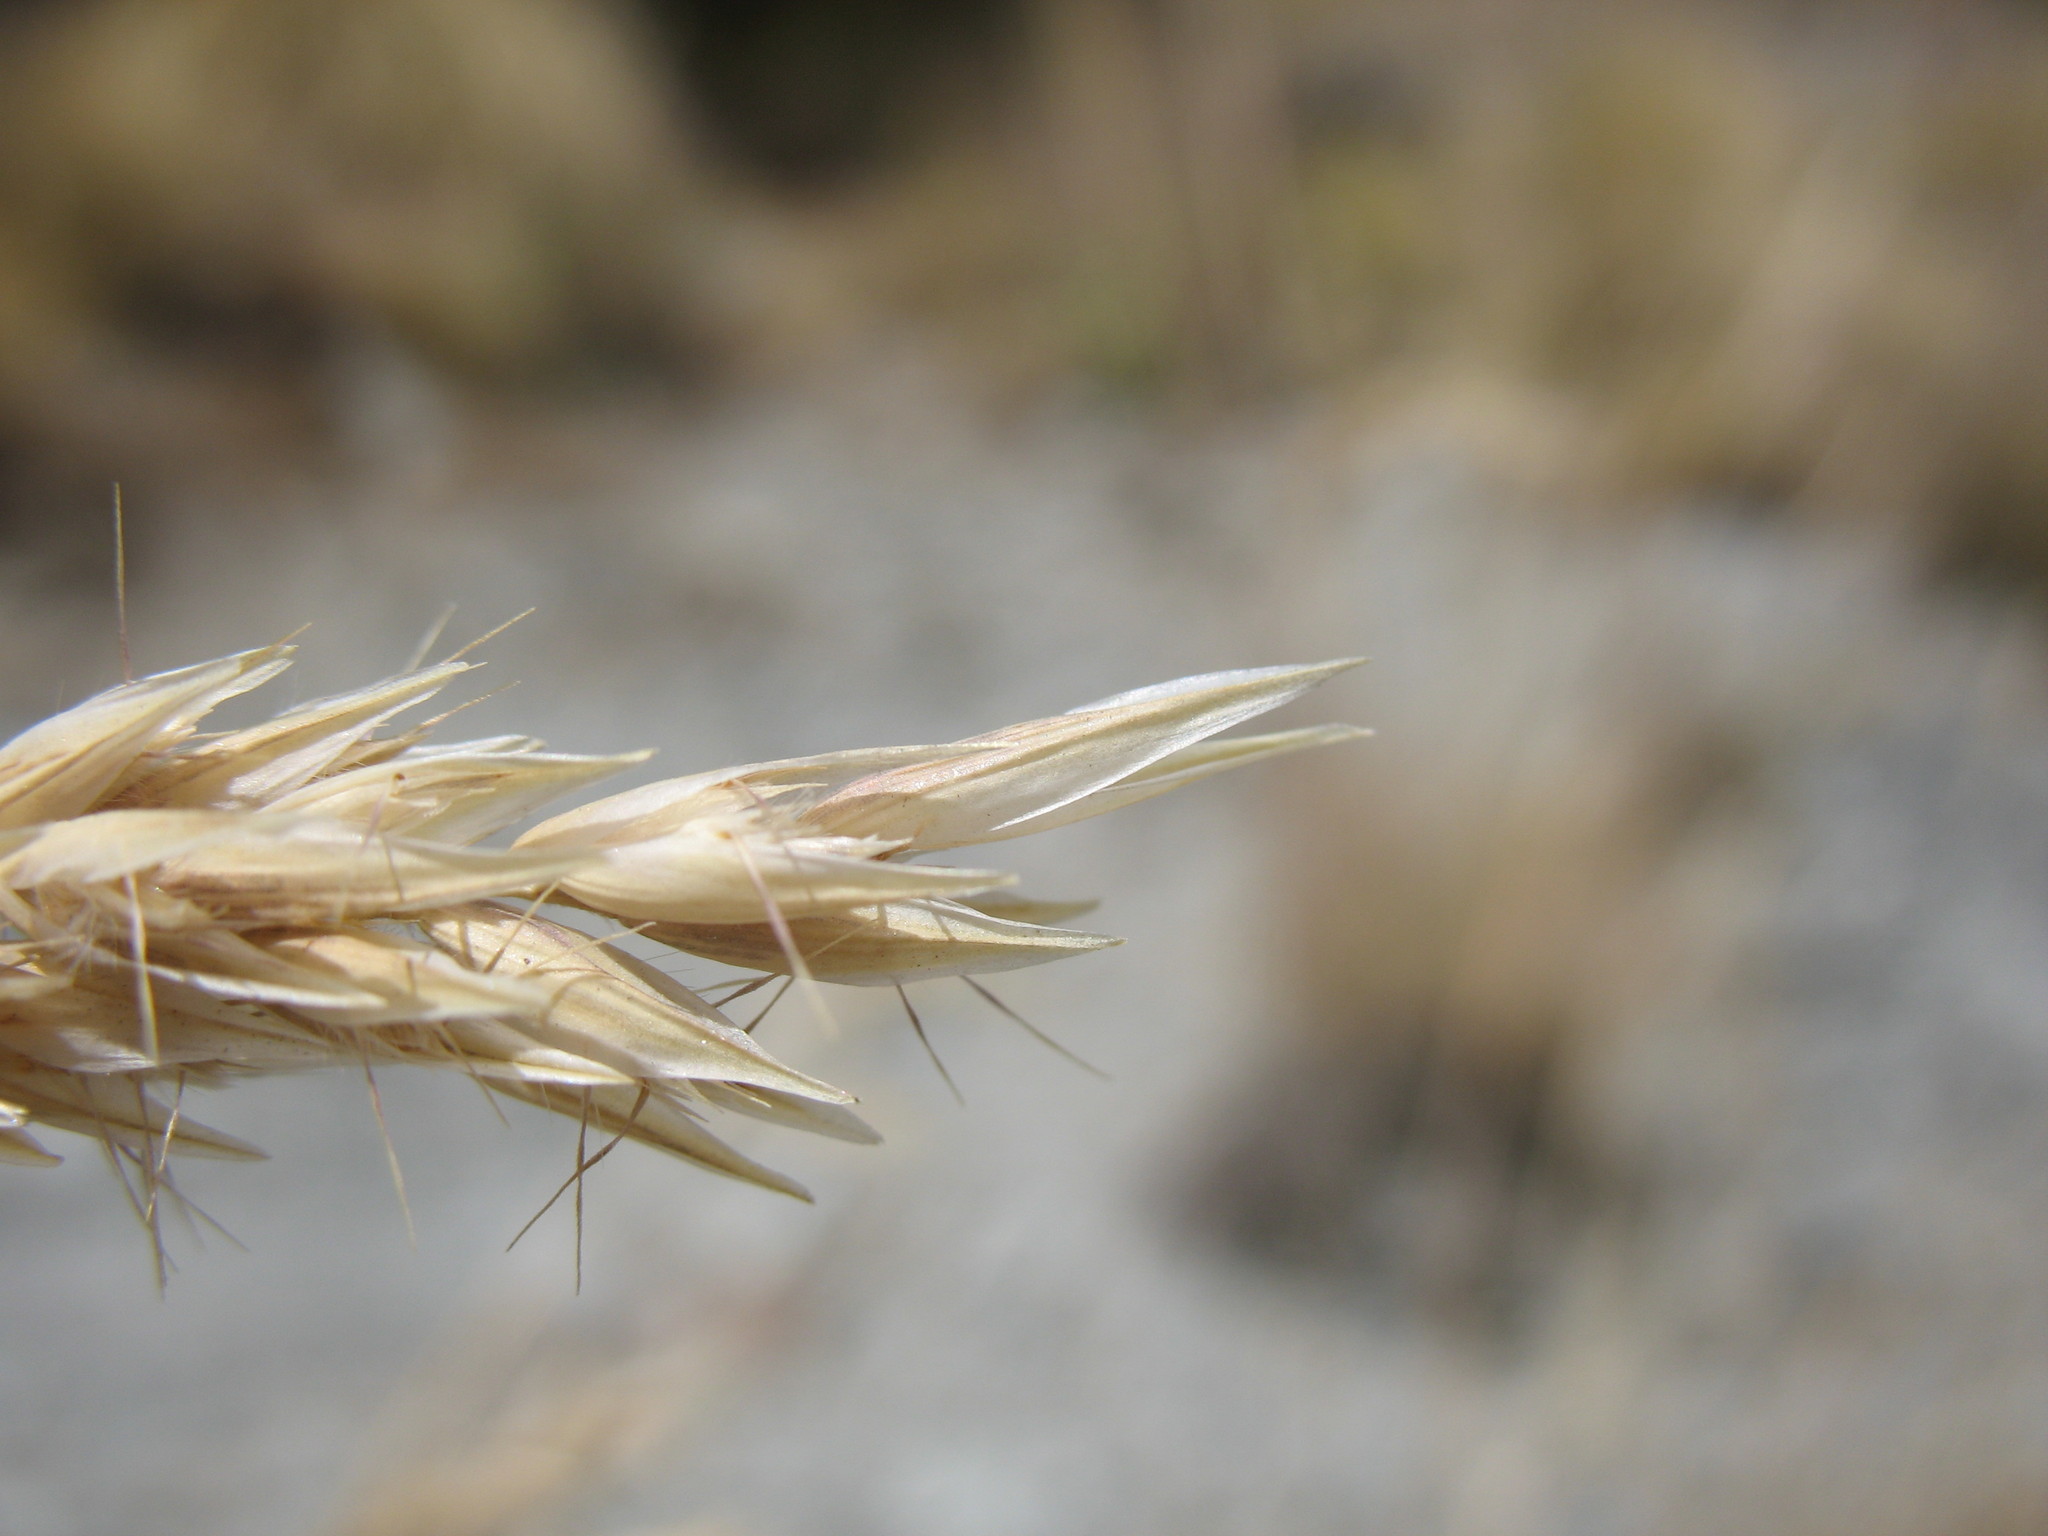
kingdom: Plantae
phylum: Tracheophyta
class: Liliopsida
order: Poales
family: Poaceae
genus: Rytidosperma
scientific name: Rytidosperma buchananii
